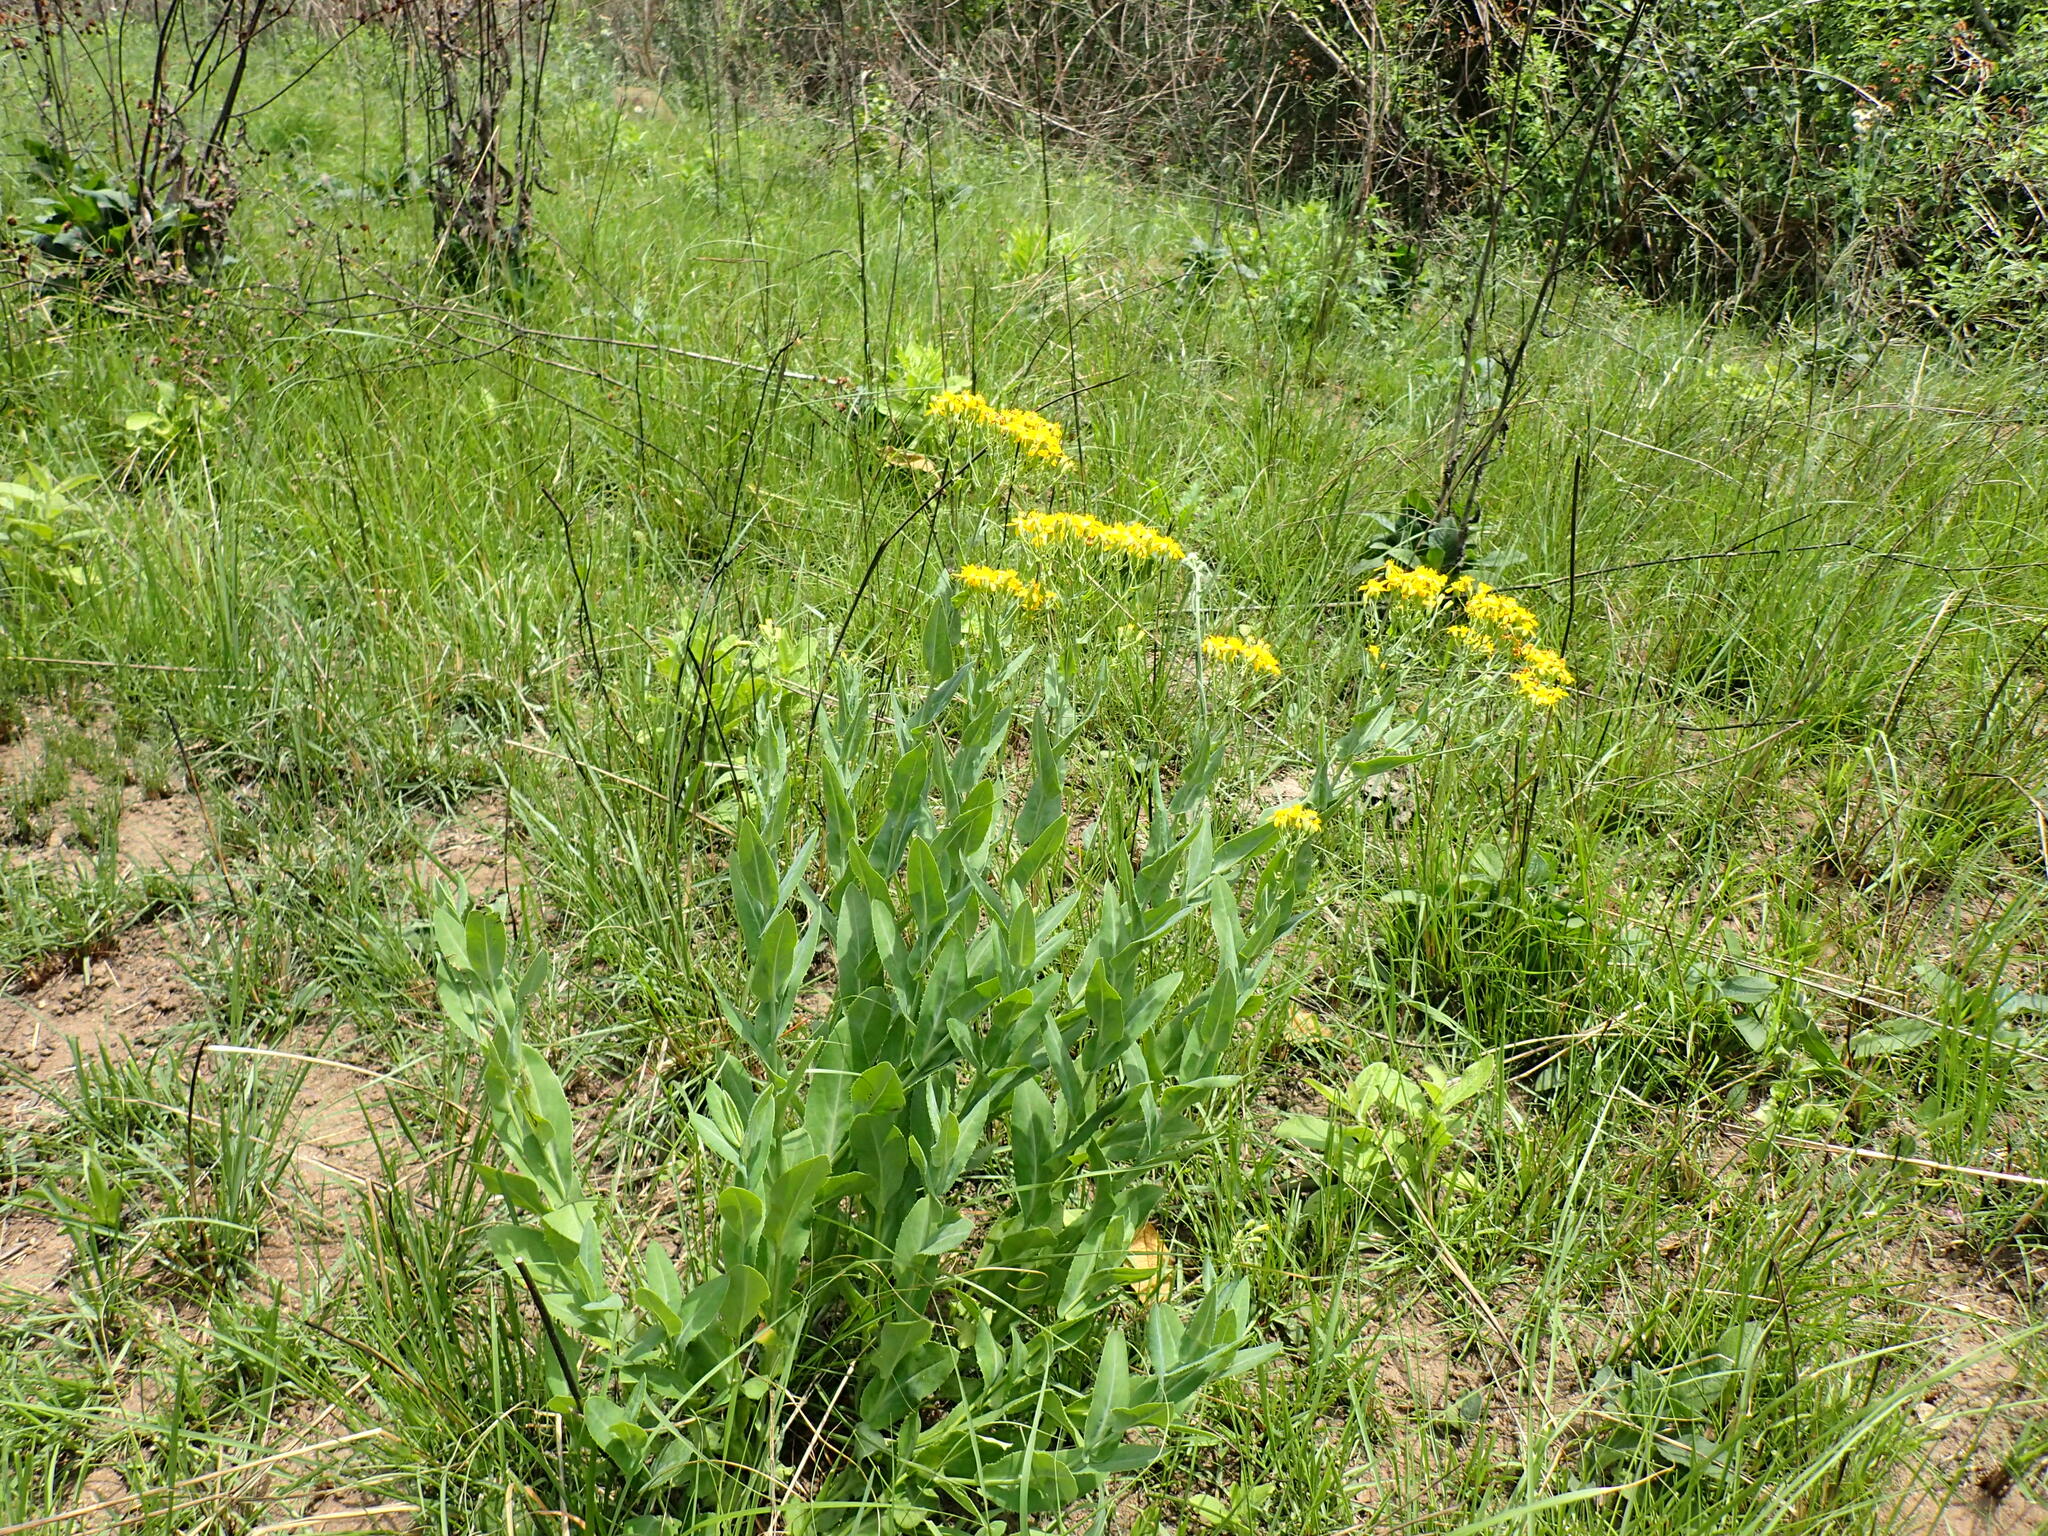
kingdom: Plantae
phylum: Tracheophyta
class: Magnoliopsida
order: Asterales
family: Asteraceae
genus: Senecio
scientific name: Senecio latifolius
